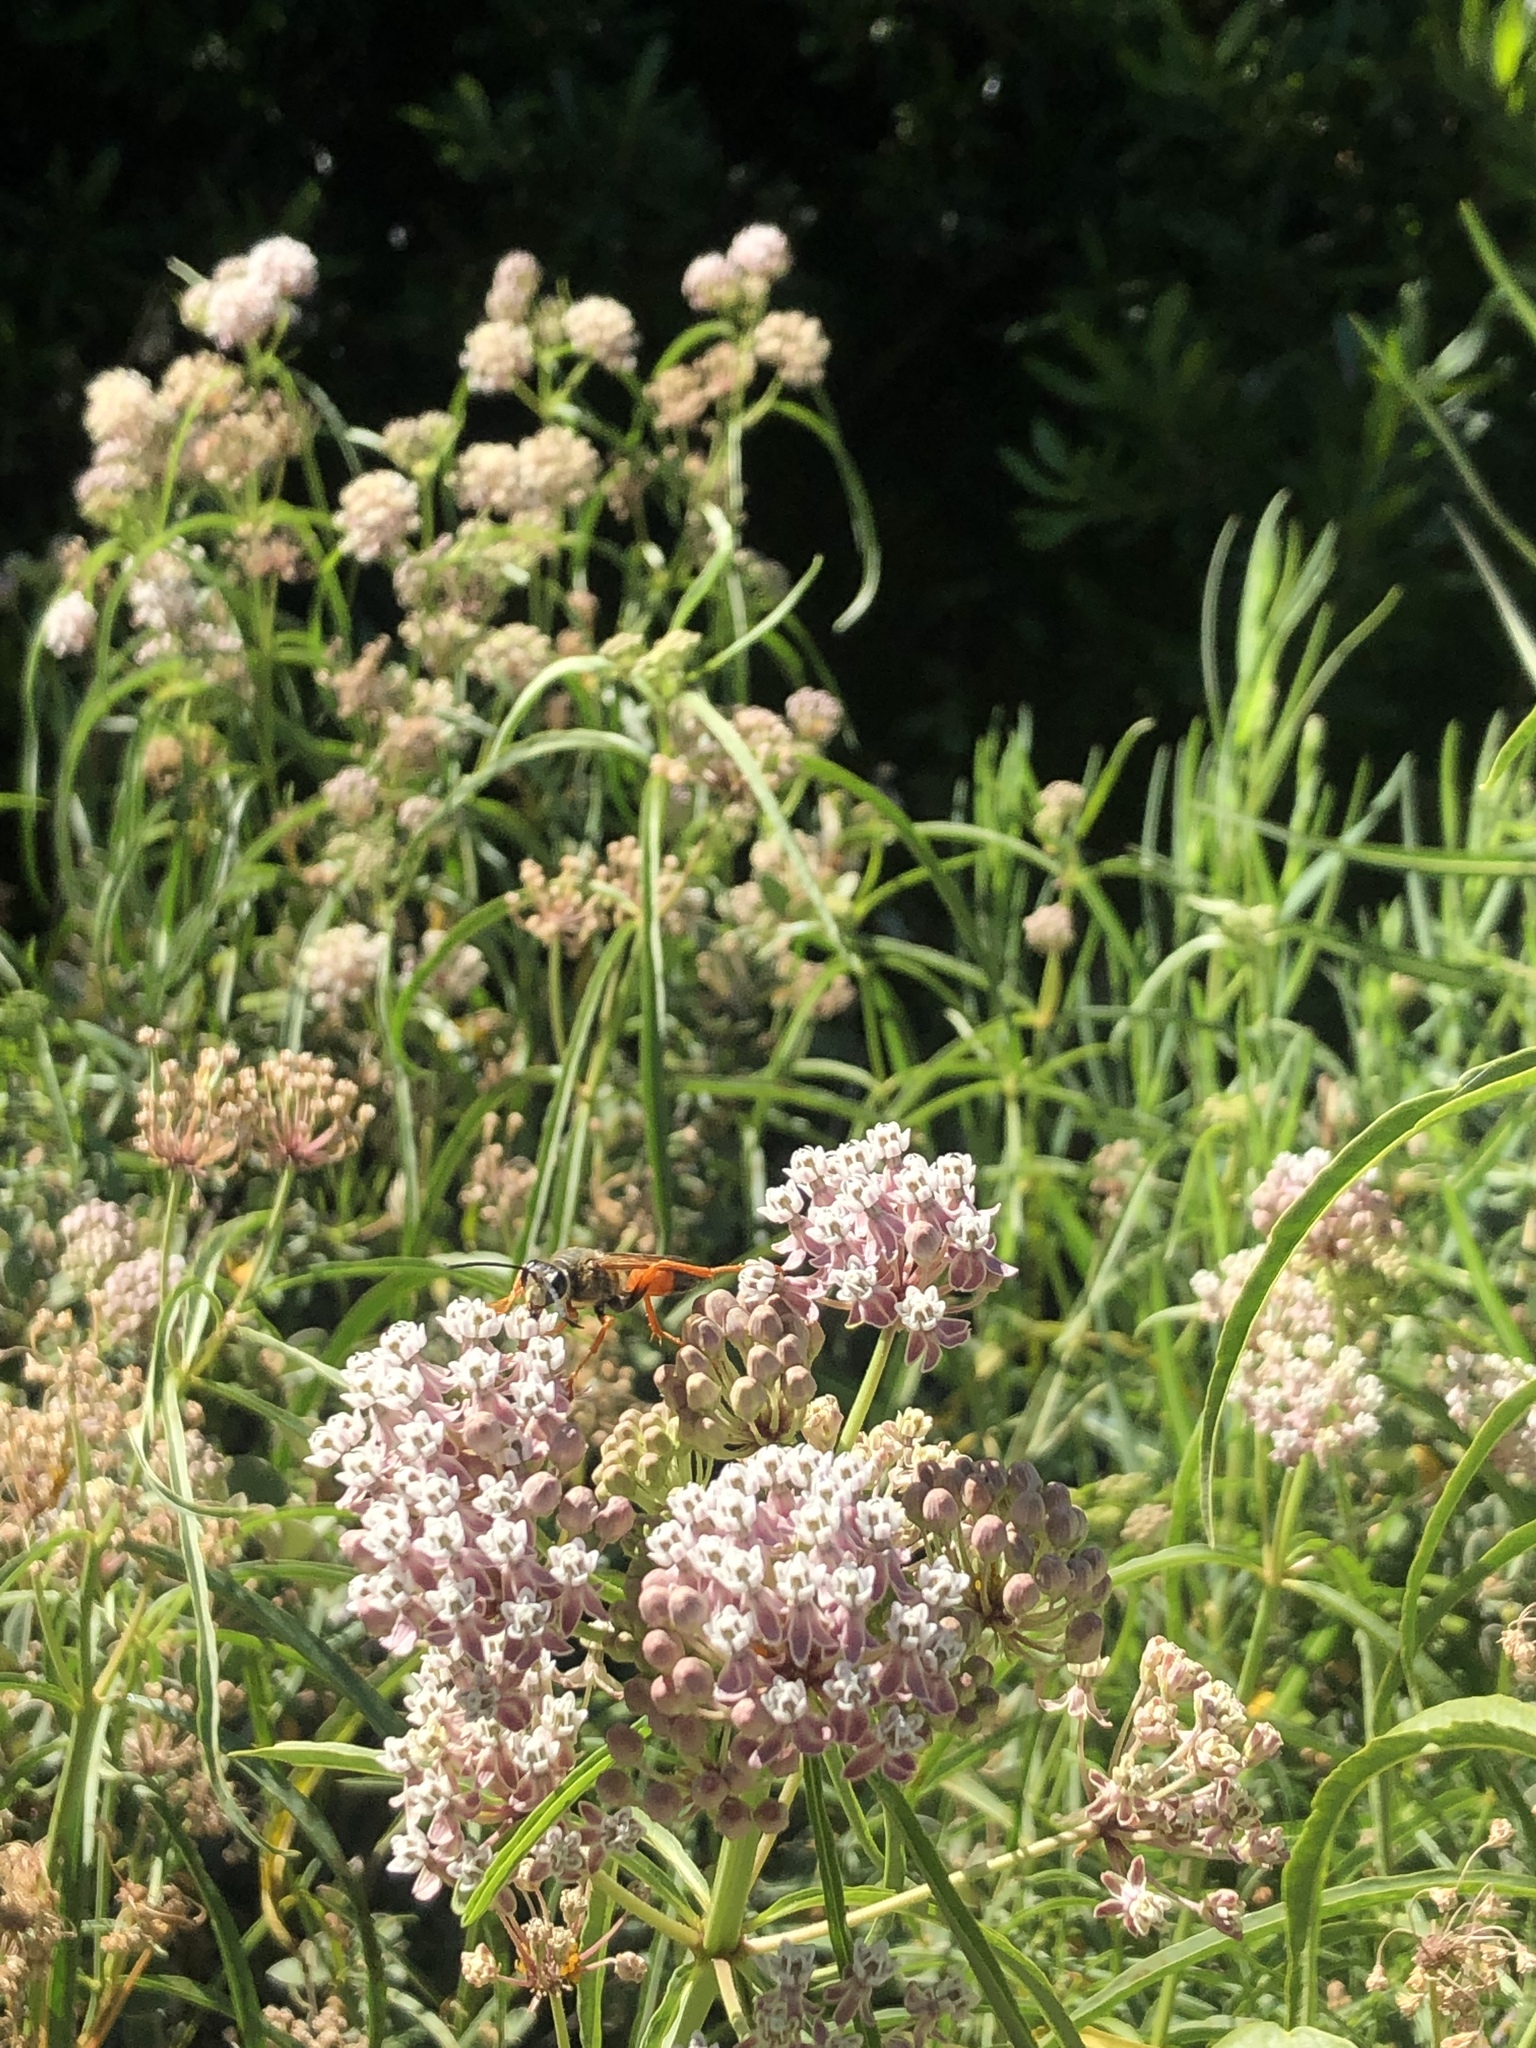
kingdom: Animalia
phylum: Arthropoda
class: Insecta
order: Hymenoptera
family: Sphecidae
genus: Sphex
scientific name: Sphex ichneumoneus
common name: Great golden digger wasp
